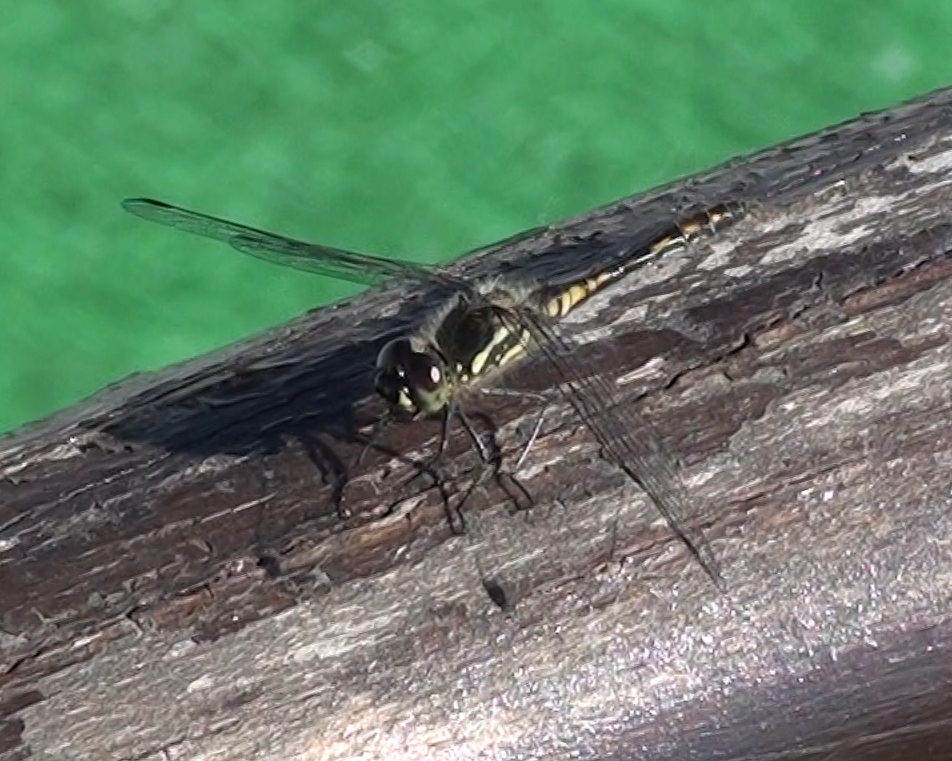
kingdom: Animalia
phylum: Arthropoda
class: Insecta
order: Odonata
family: Libellulidae
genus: Sympetrum
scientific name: Sympetrum danae
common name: Black darter
